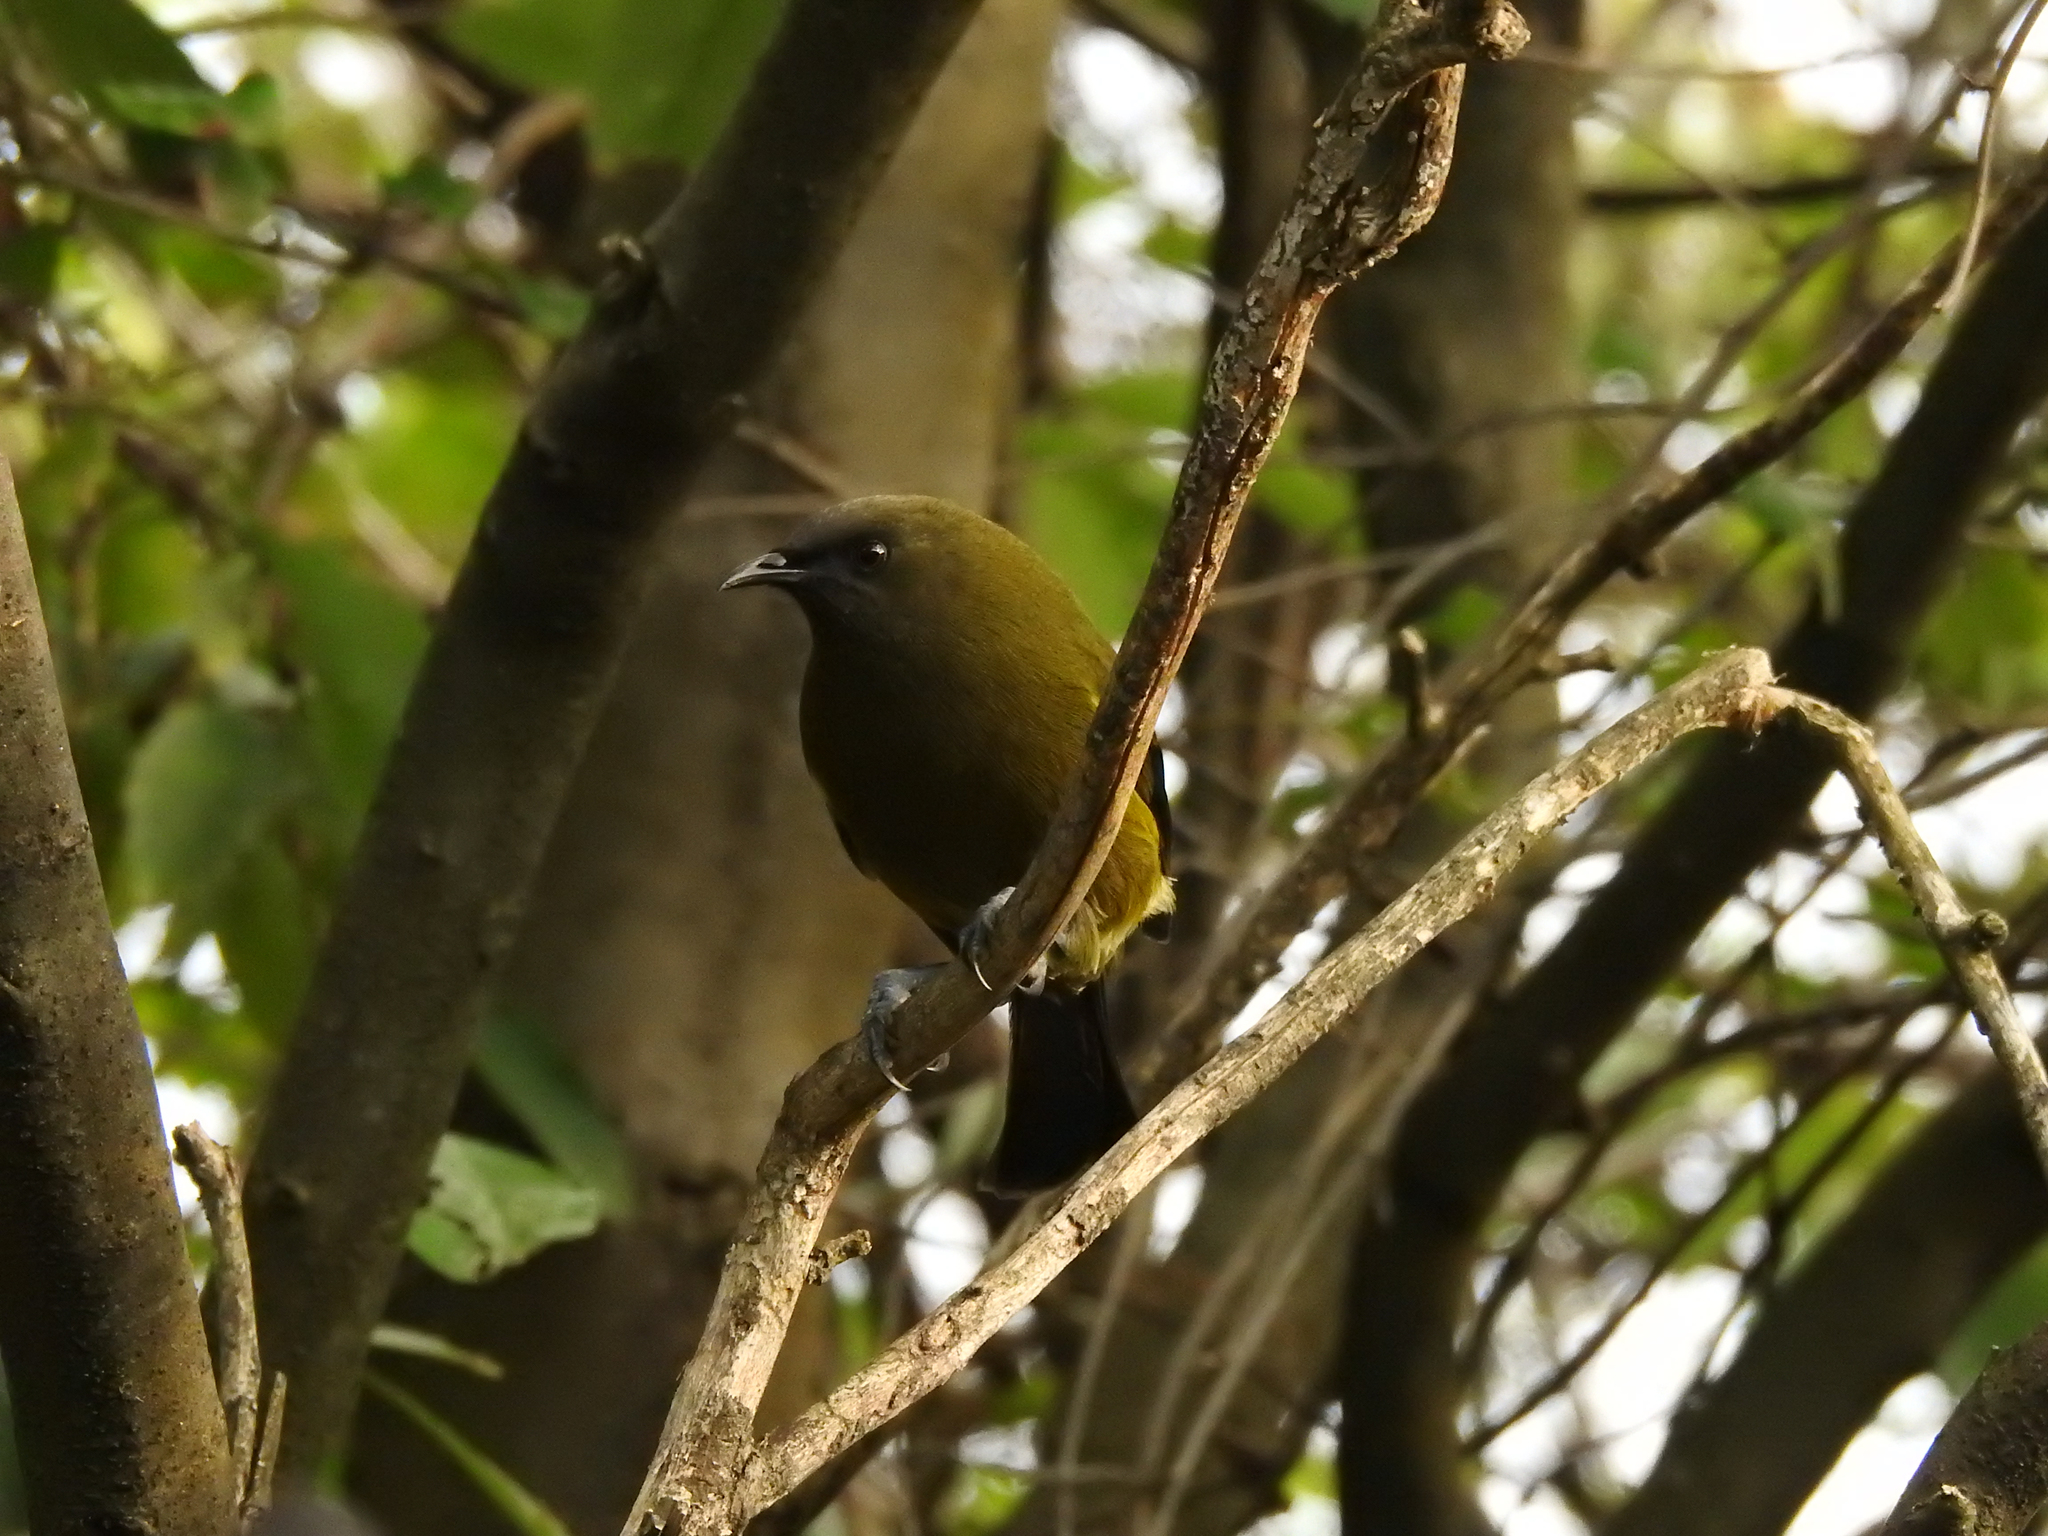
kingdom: Animalia
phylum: Chordata
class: Aves
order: Passeriformes
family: Meliphagidae
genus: Anthornis
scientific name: Anthornis melanura
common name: New zealand bellbird
